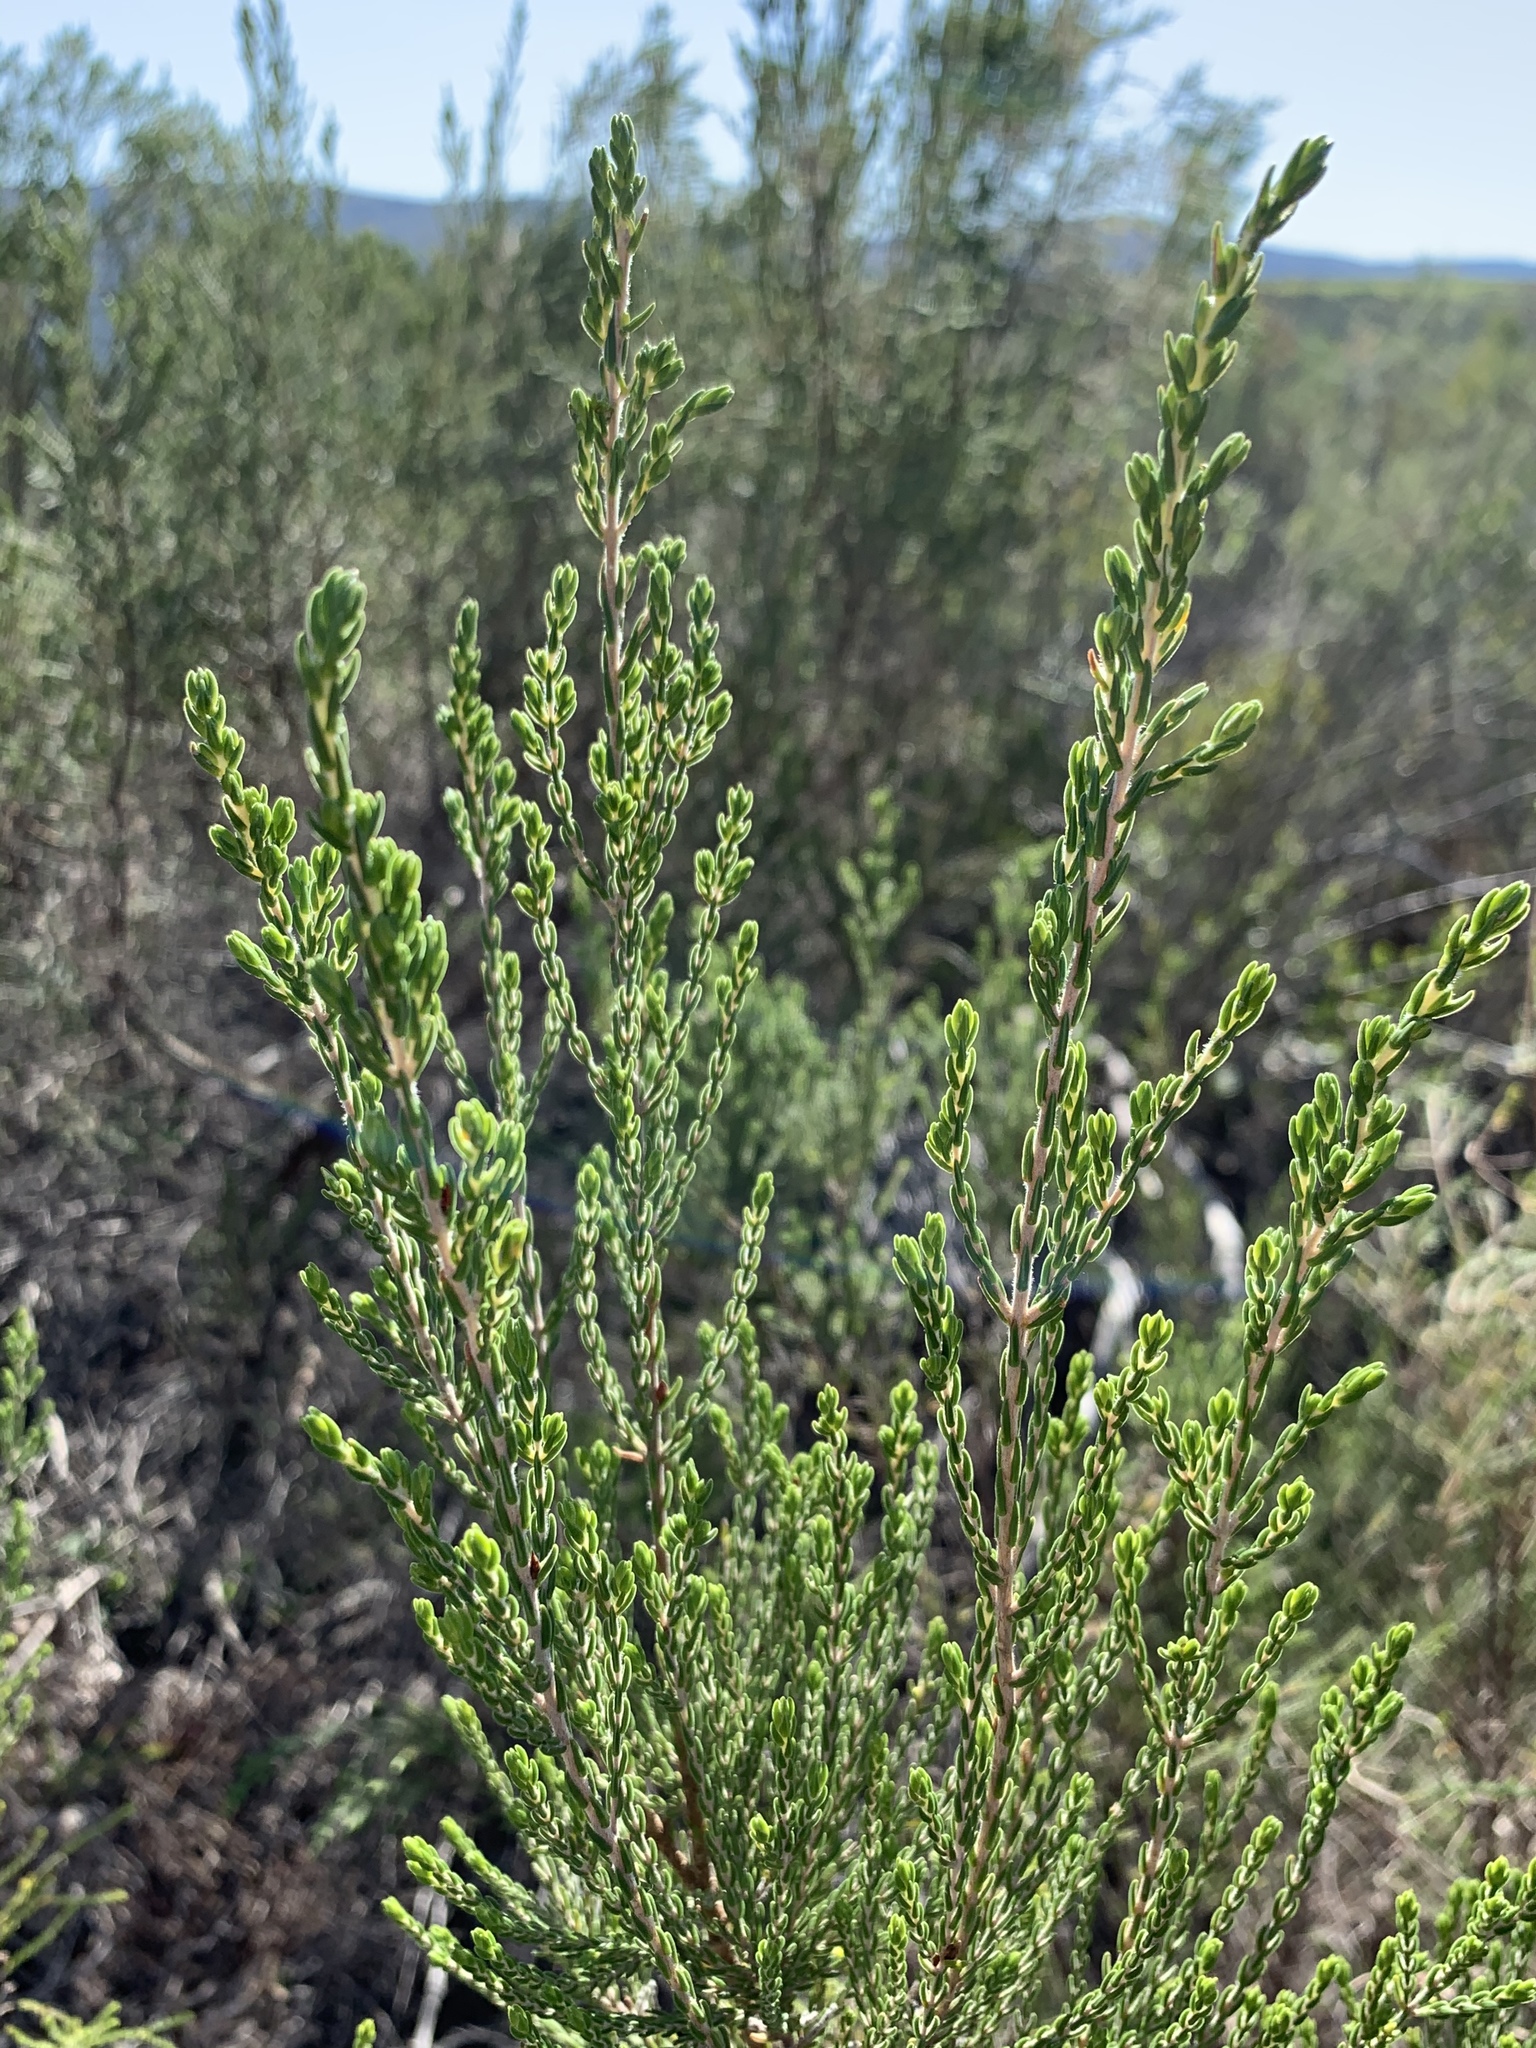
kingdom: Plantae
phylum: Tracheophyta
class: Magnoliopsida
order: Malvales
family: Thymelaeaceae
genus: Passerina
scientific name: Passerina corymbosa
